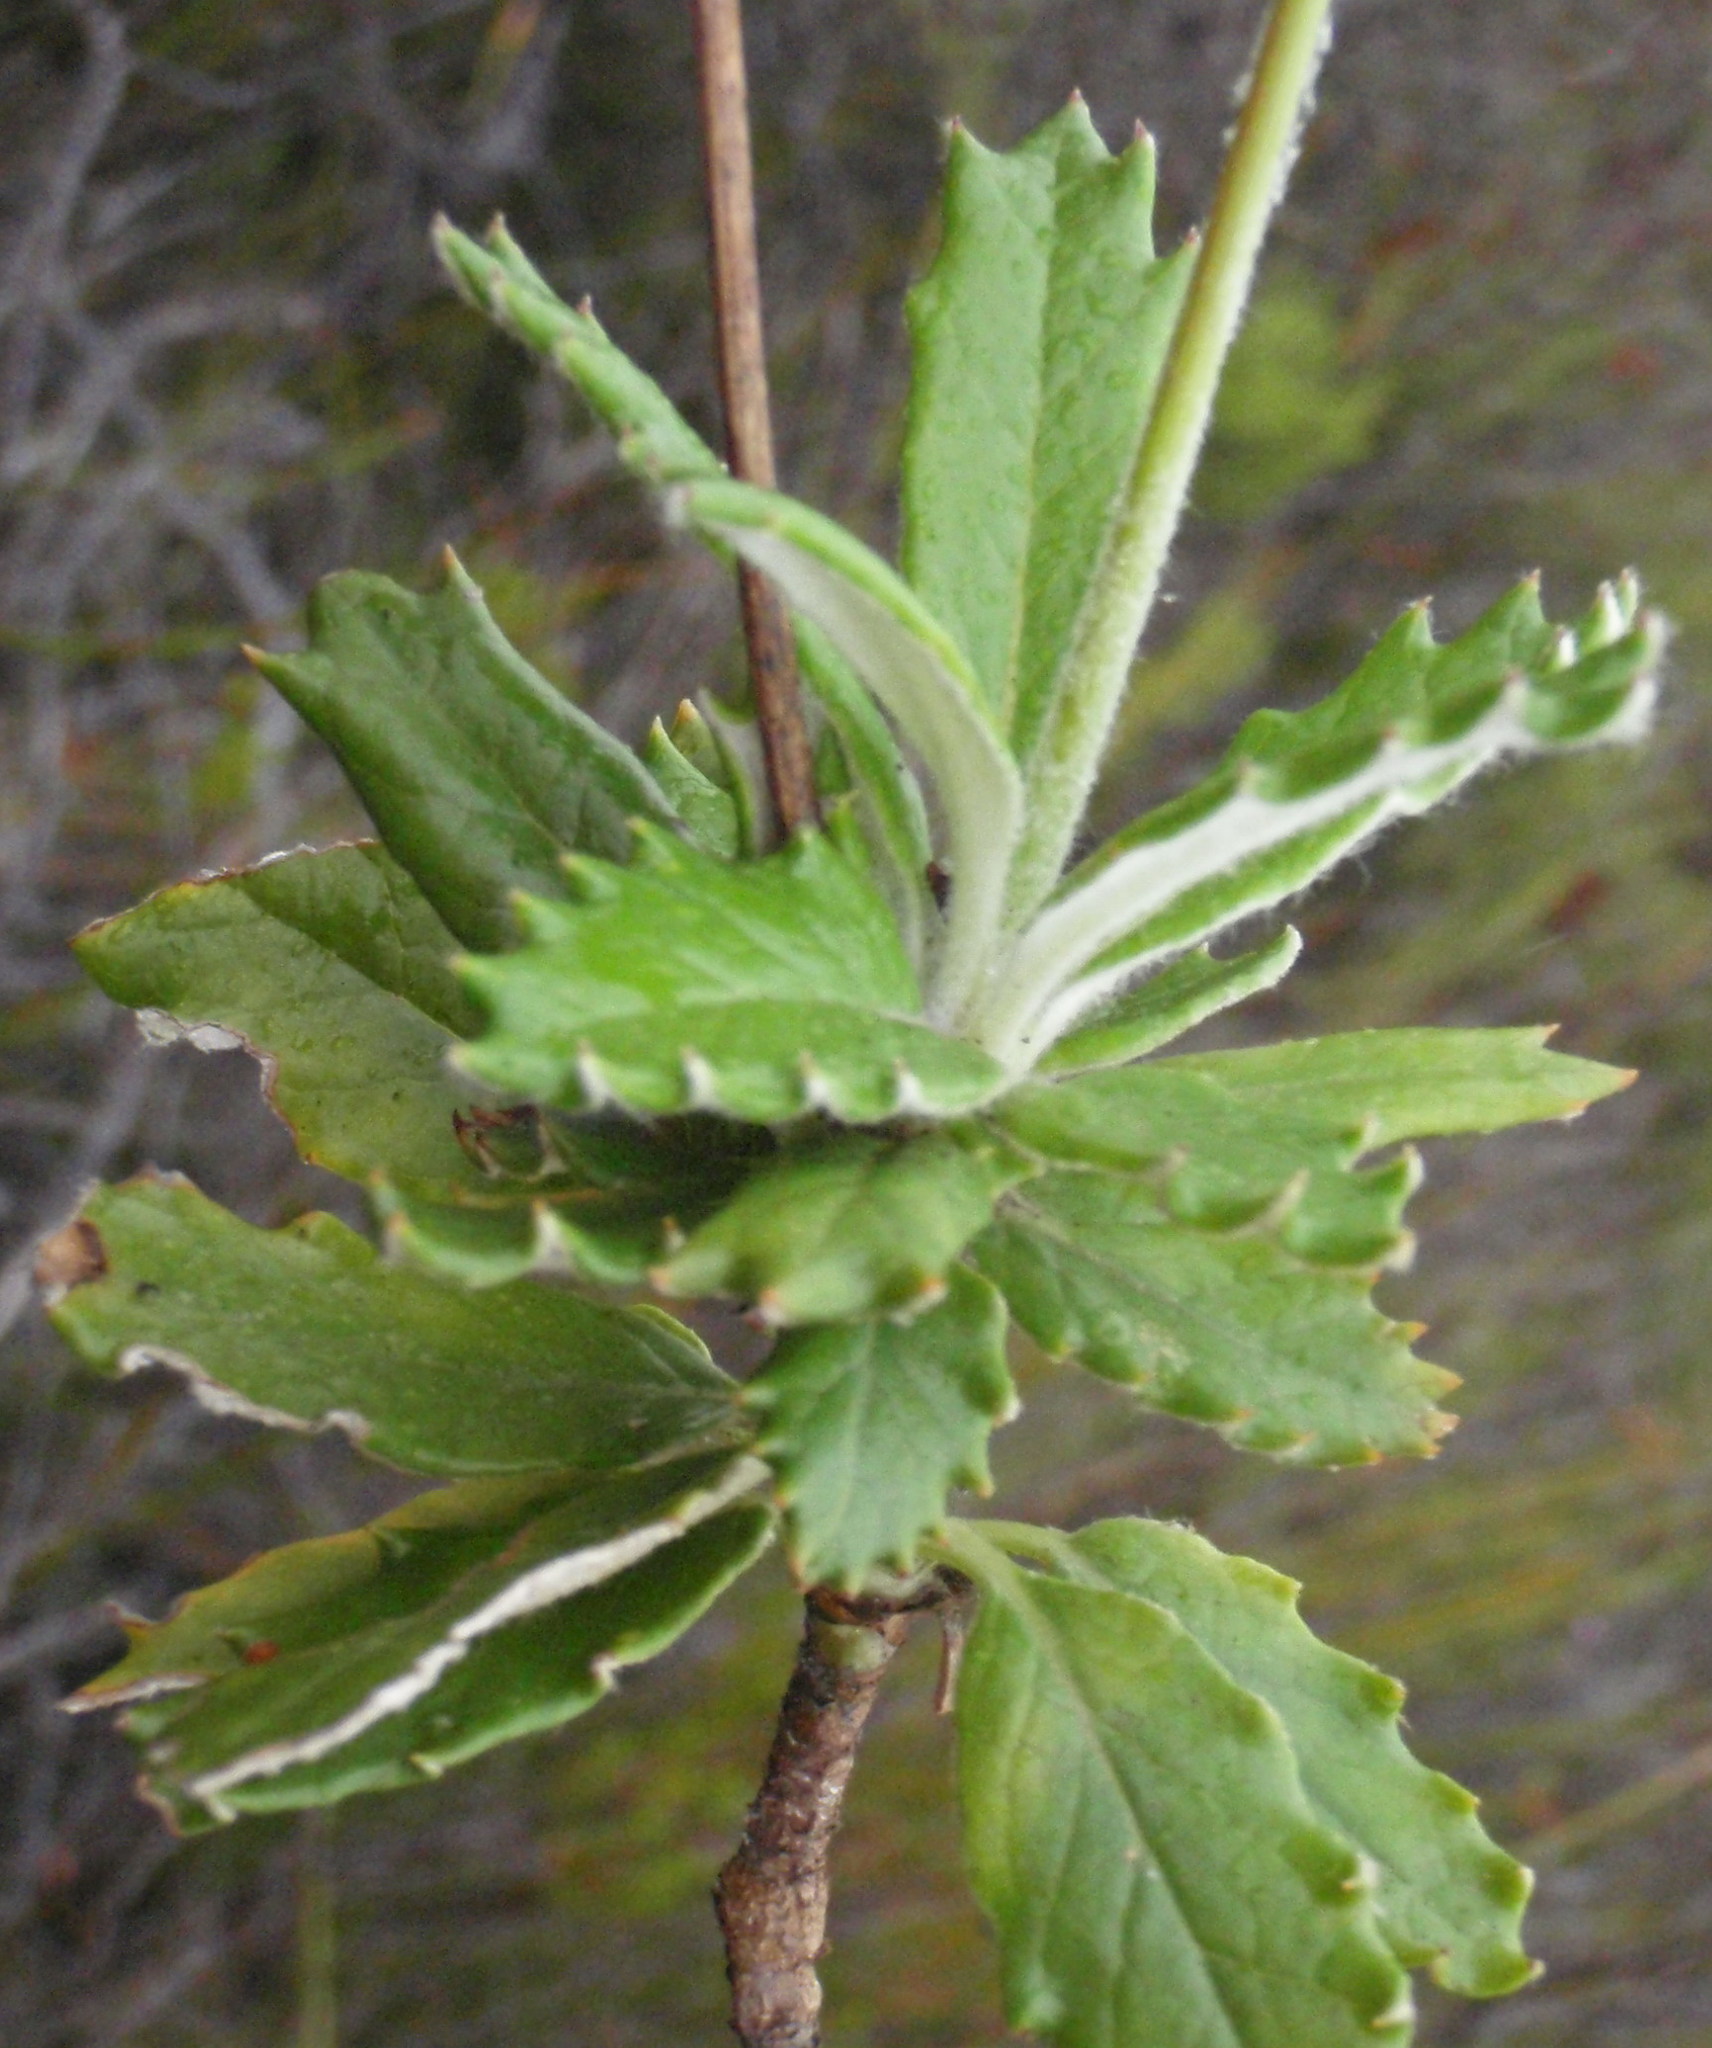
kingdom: Plantae
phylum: Tracheophyta
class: Magnoliopsida
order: Apiales
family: Apiaceae
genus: Hermas
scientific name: Hermas quinquedentata
